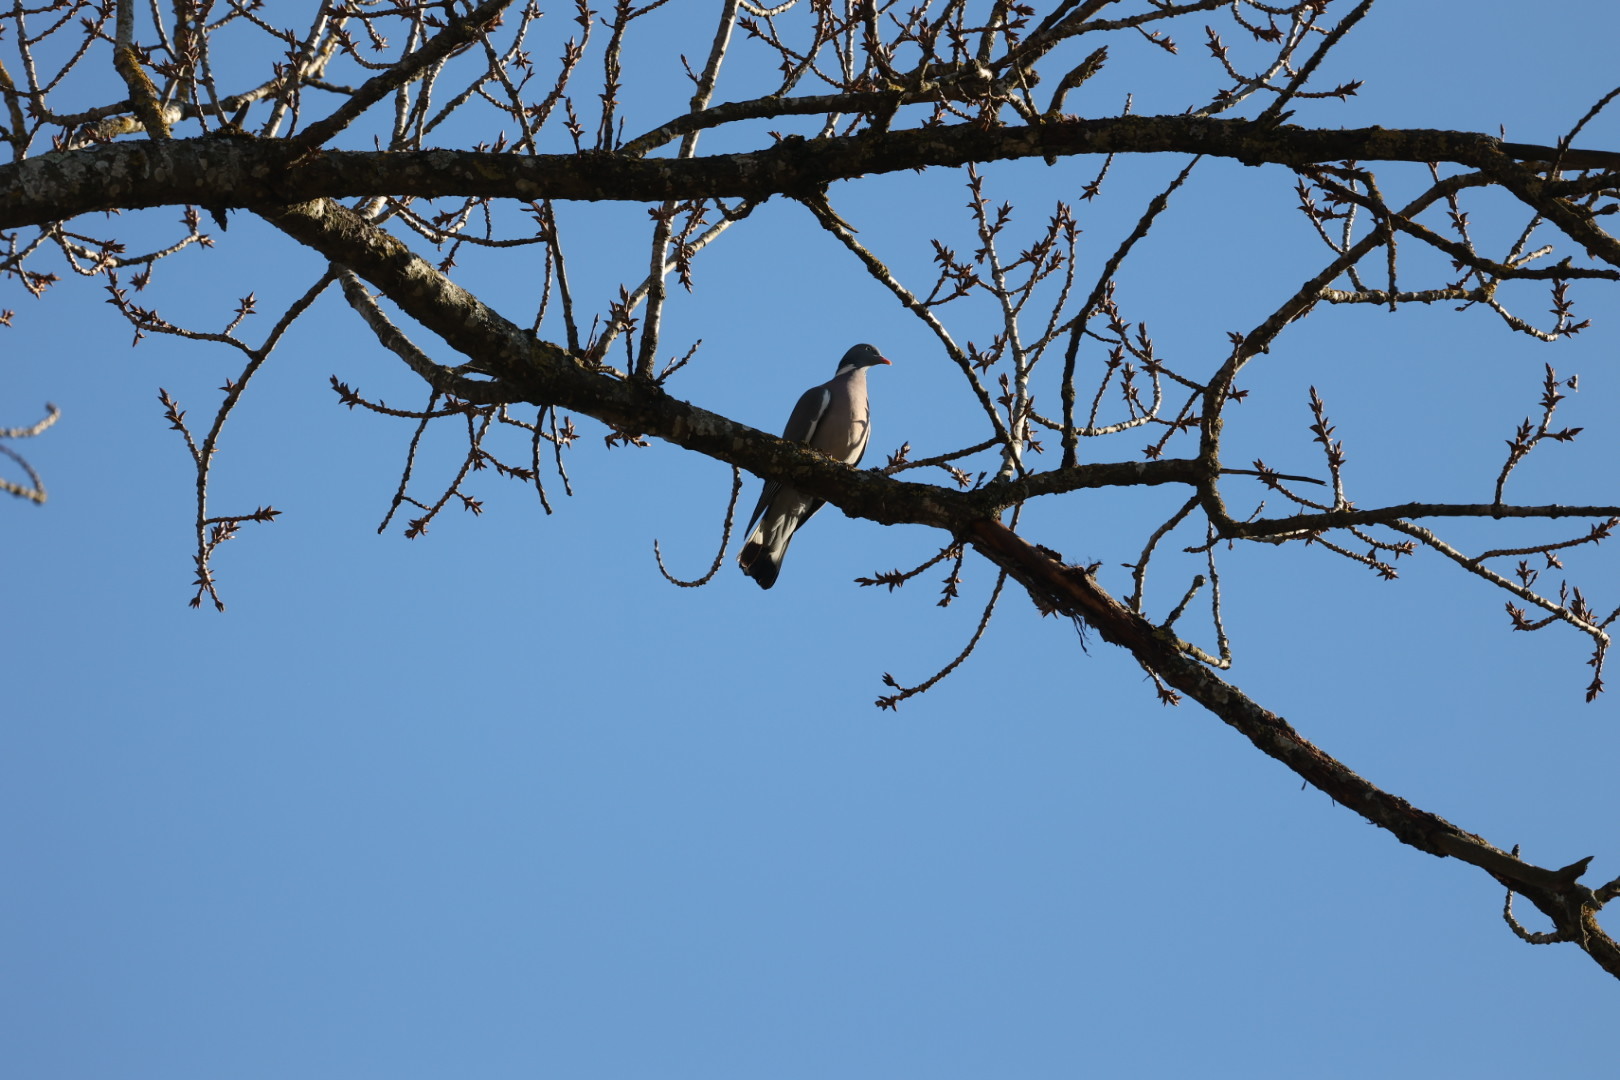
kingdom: Animalia
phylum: Chordata
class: Aves
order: Columbiformes
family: Columbidae
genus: Columba
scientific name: Columba palumbus
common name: Common wood pigeon
